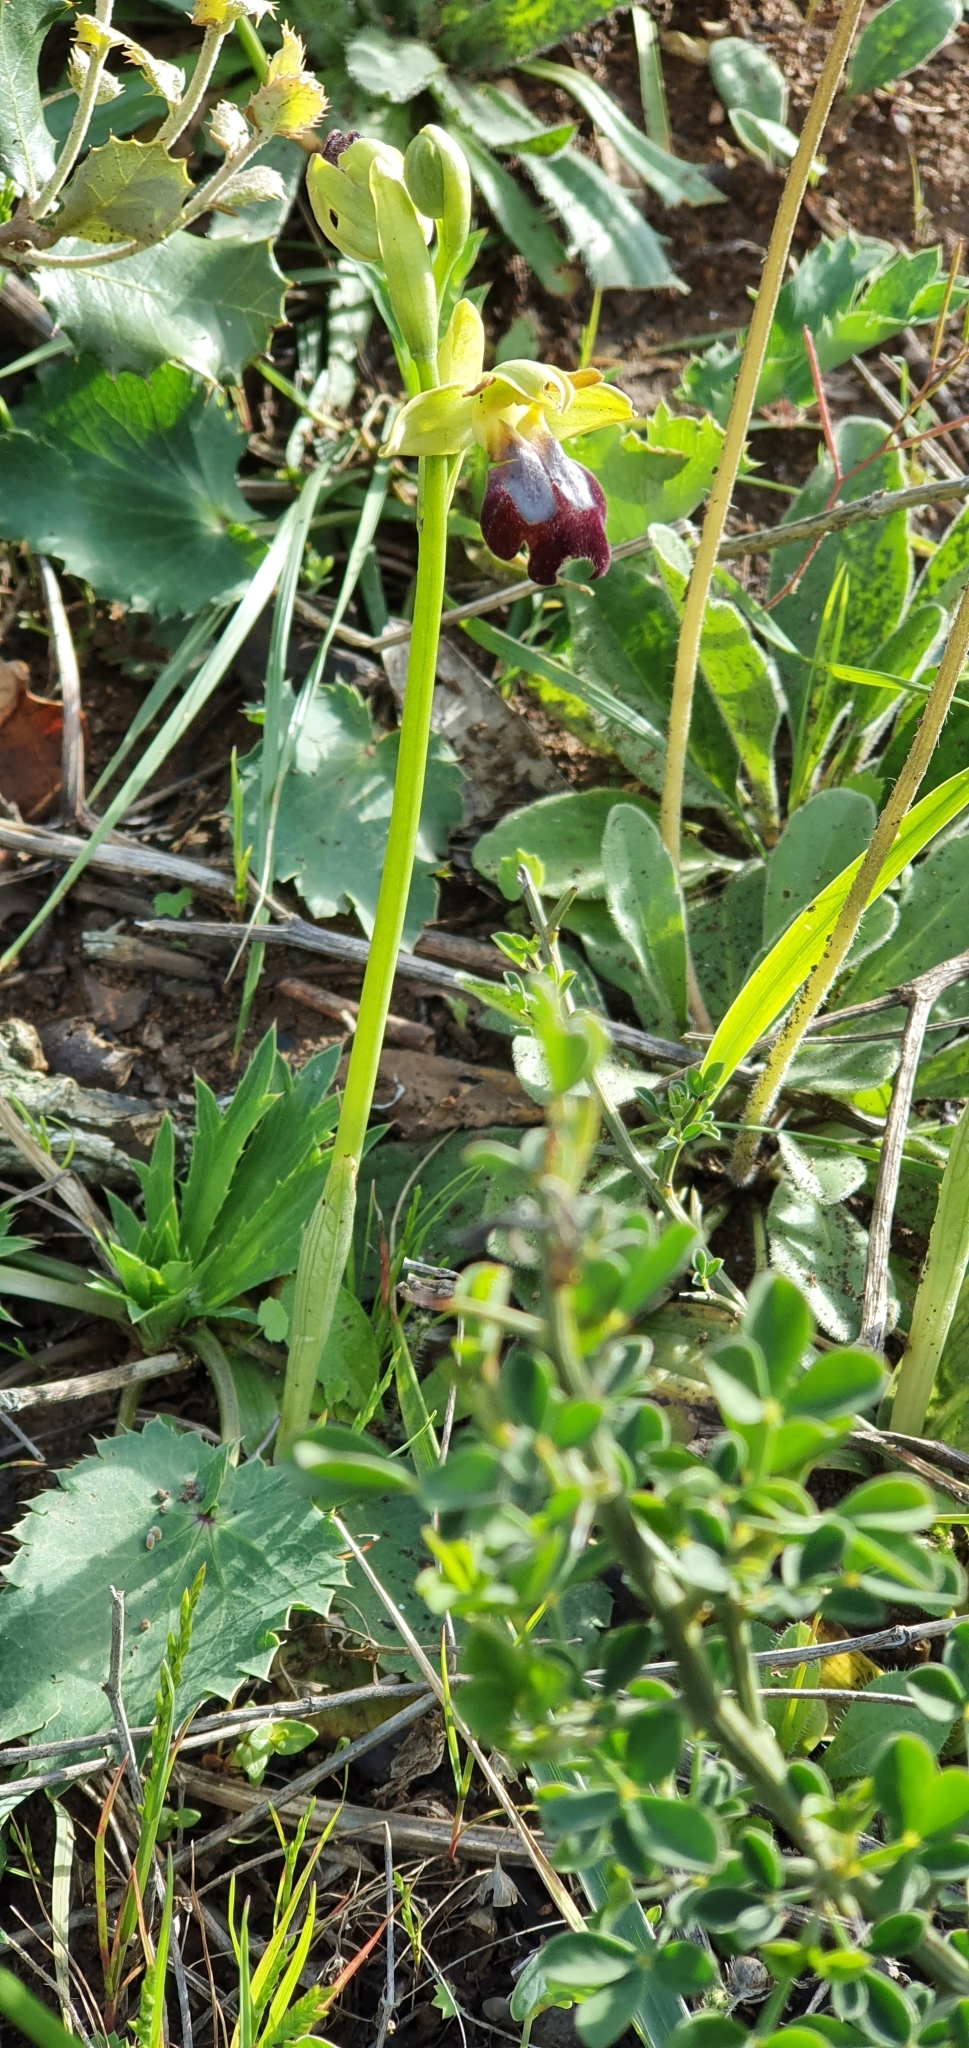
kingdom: Plantae
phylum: Tracheophyta
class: Liliopsida
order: Asparagales
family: Orchidaceae
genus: Ophrys
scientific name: Ophrys fusca
